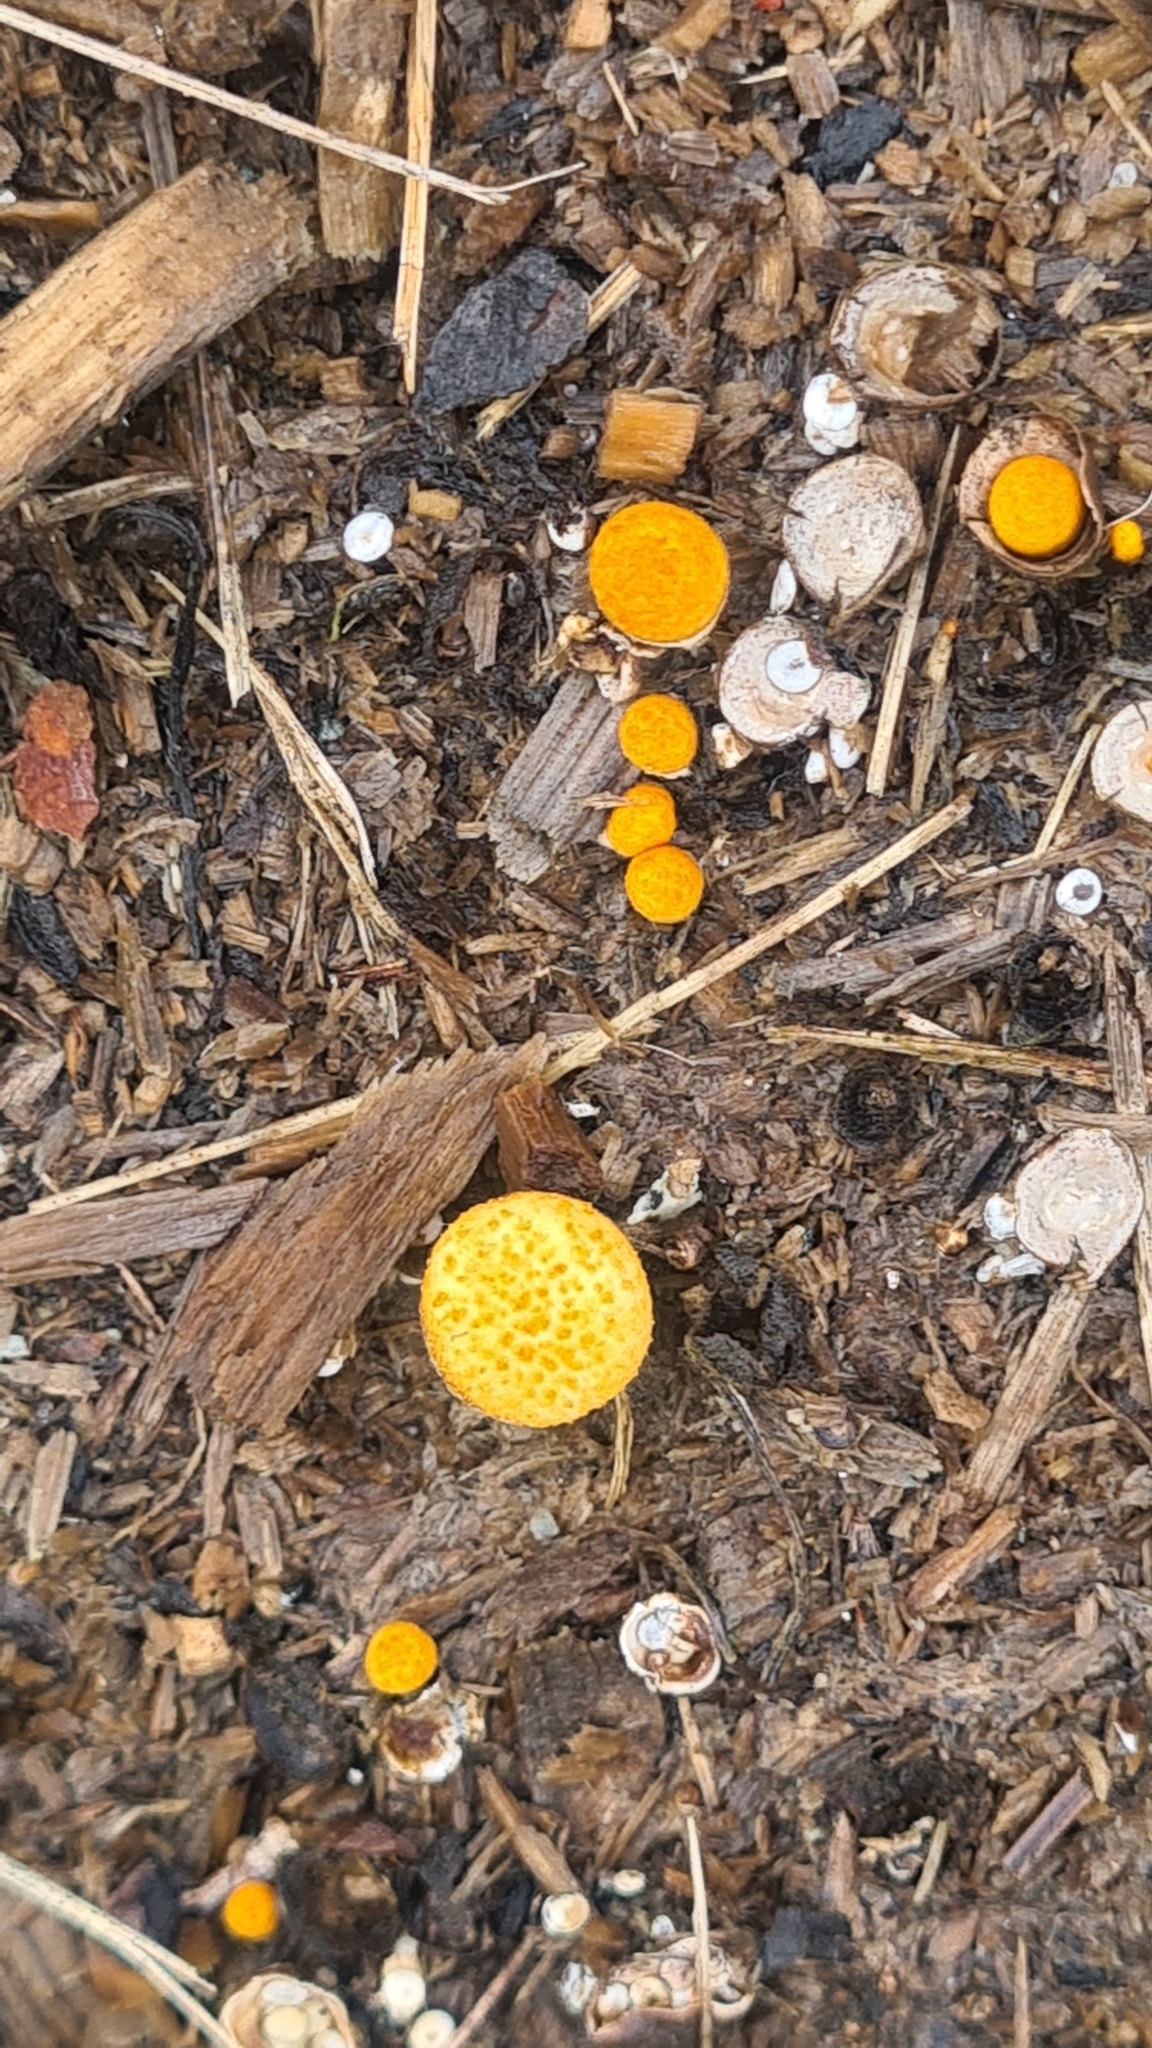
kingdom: Fungi
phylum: Basidiomycota
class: Agaricomycetes
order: Agaricales
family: Nidulariaceae
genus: Crucibulum
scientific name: Crucibulum laeve
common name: Common bird's nest
